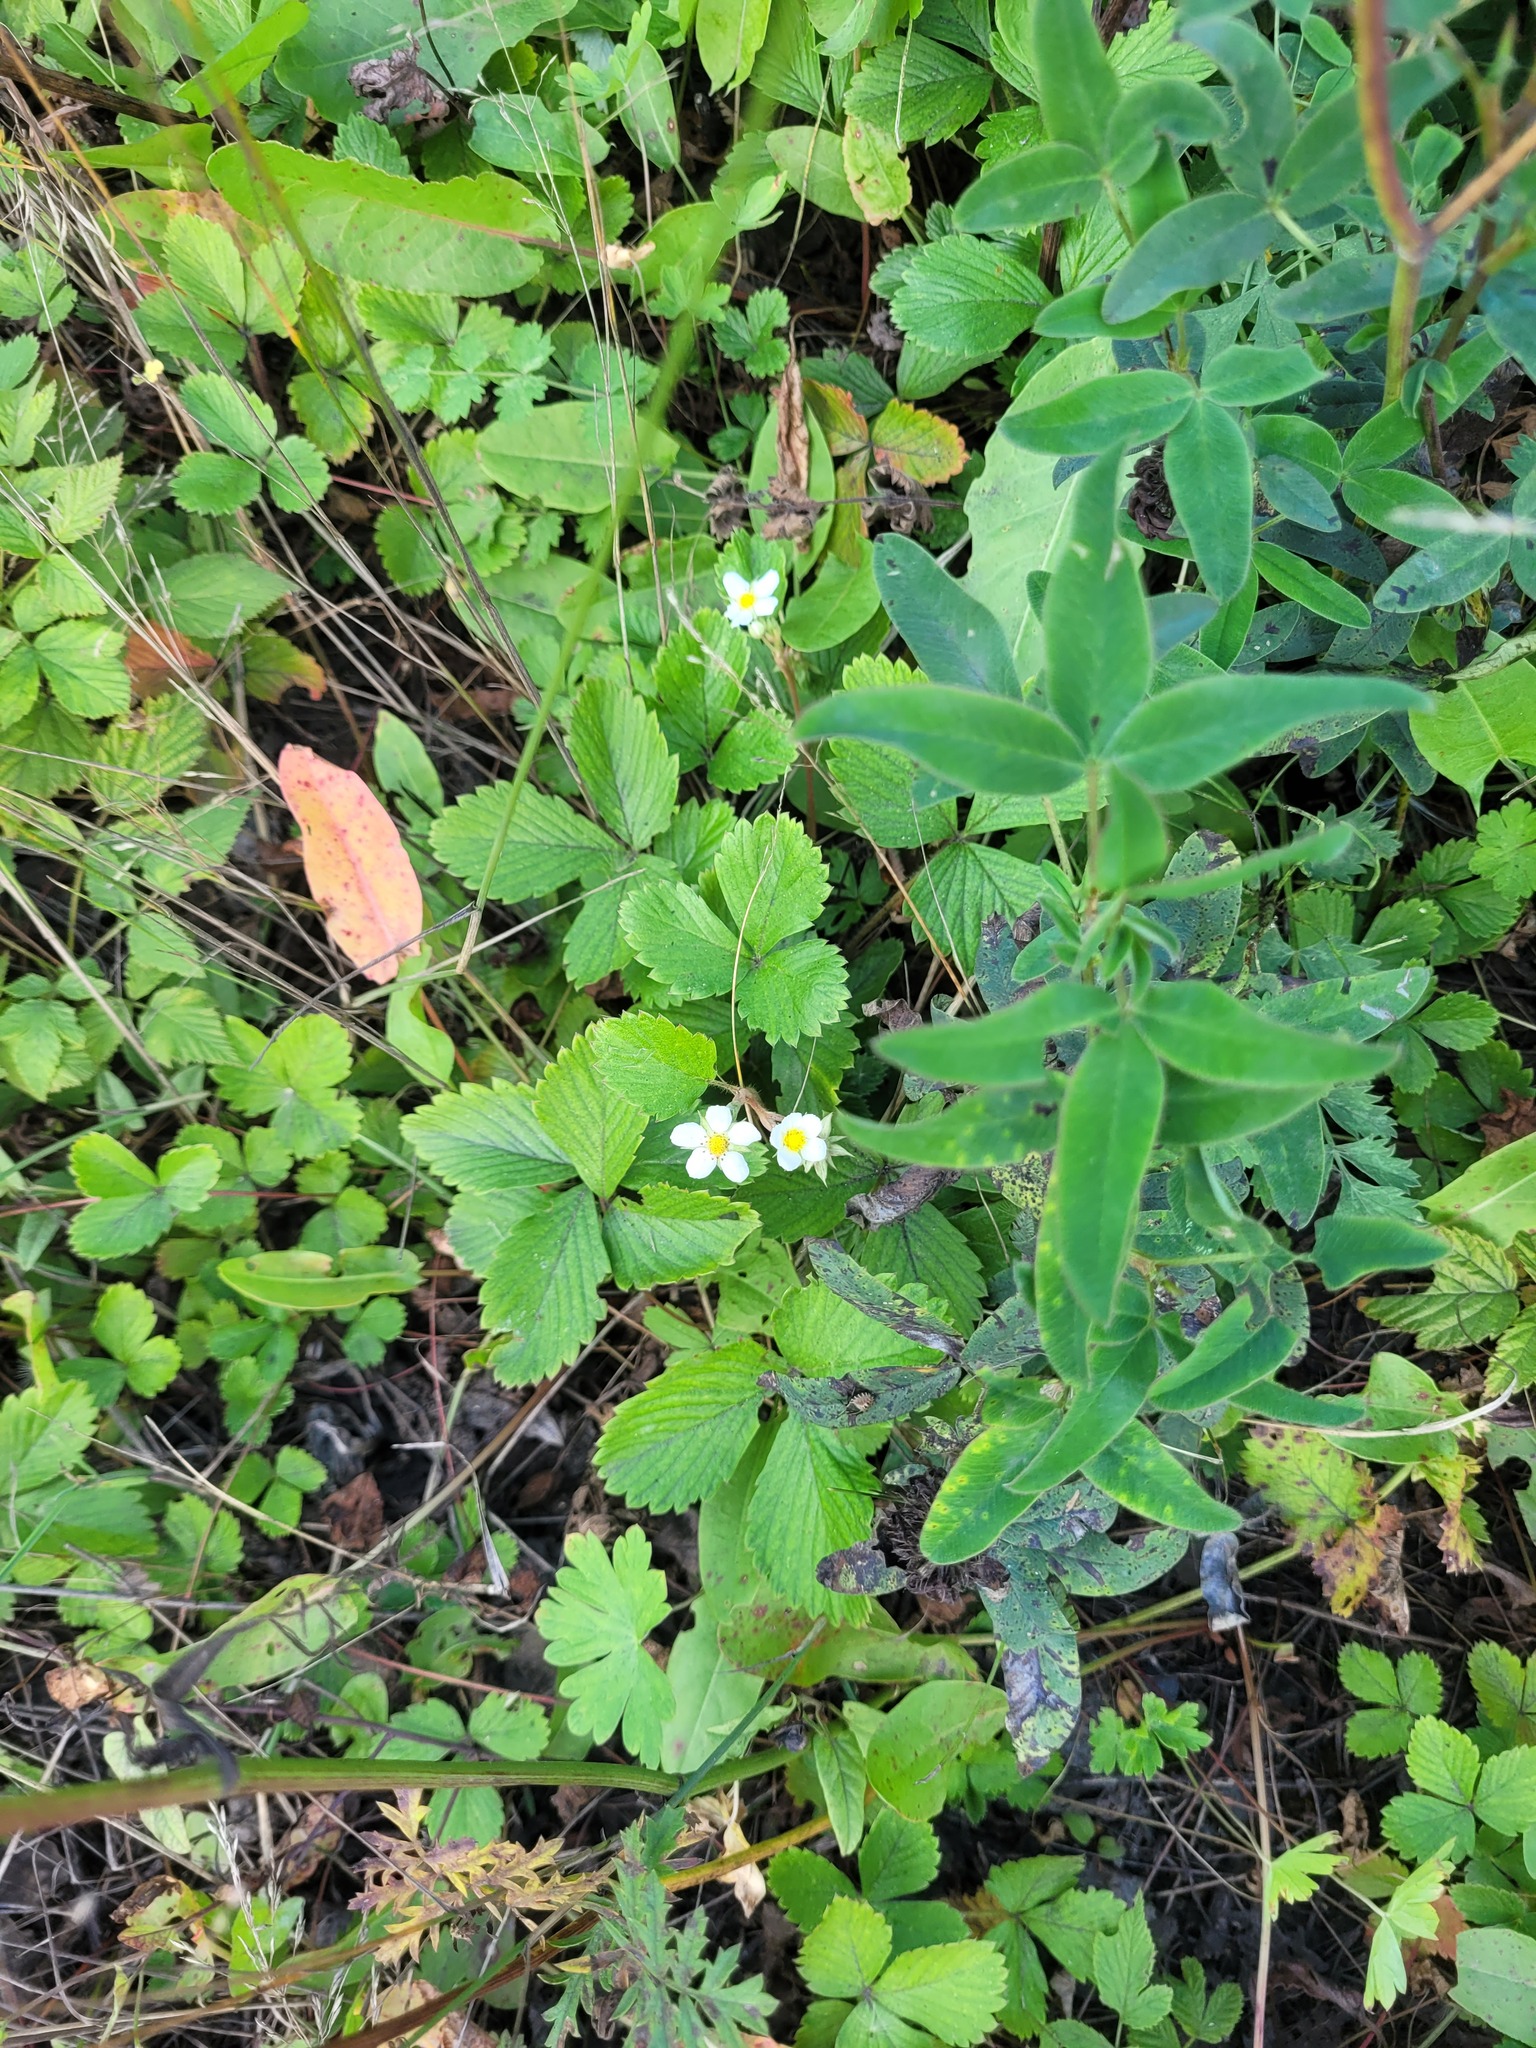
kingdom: Plantae
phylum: Tracheophyta
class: Magnoliopsida
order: Rosales
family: Rosaceae
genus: Fragaria
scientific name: Fragaria vesca
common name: Wild strawberry
